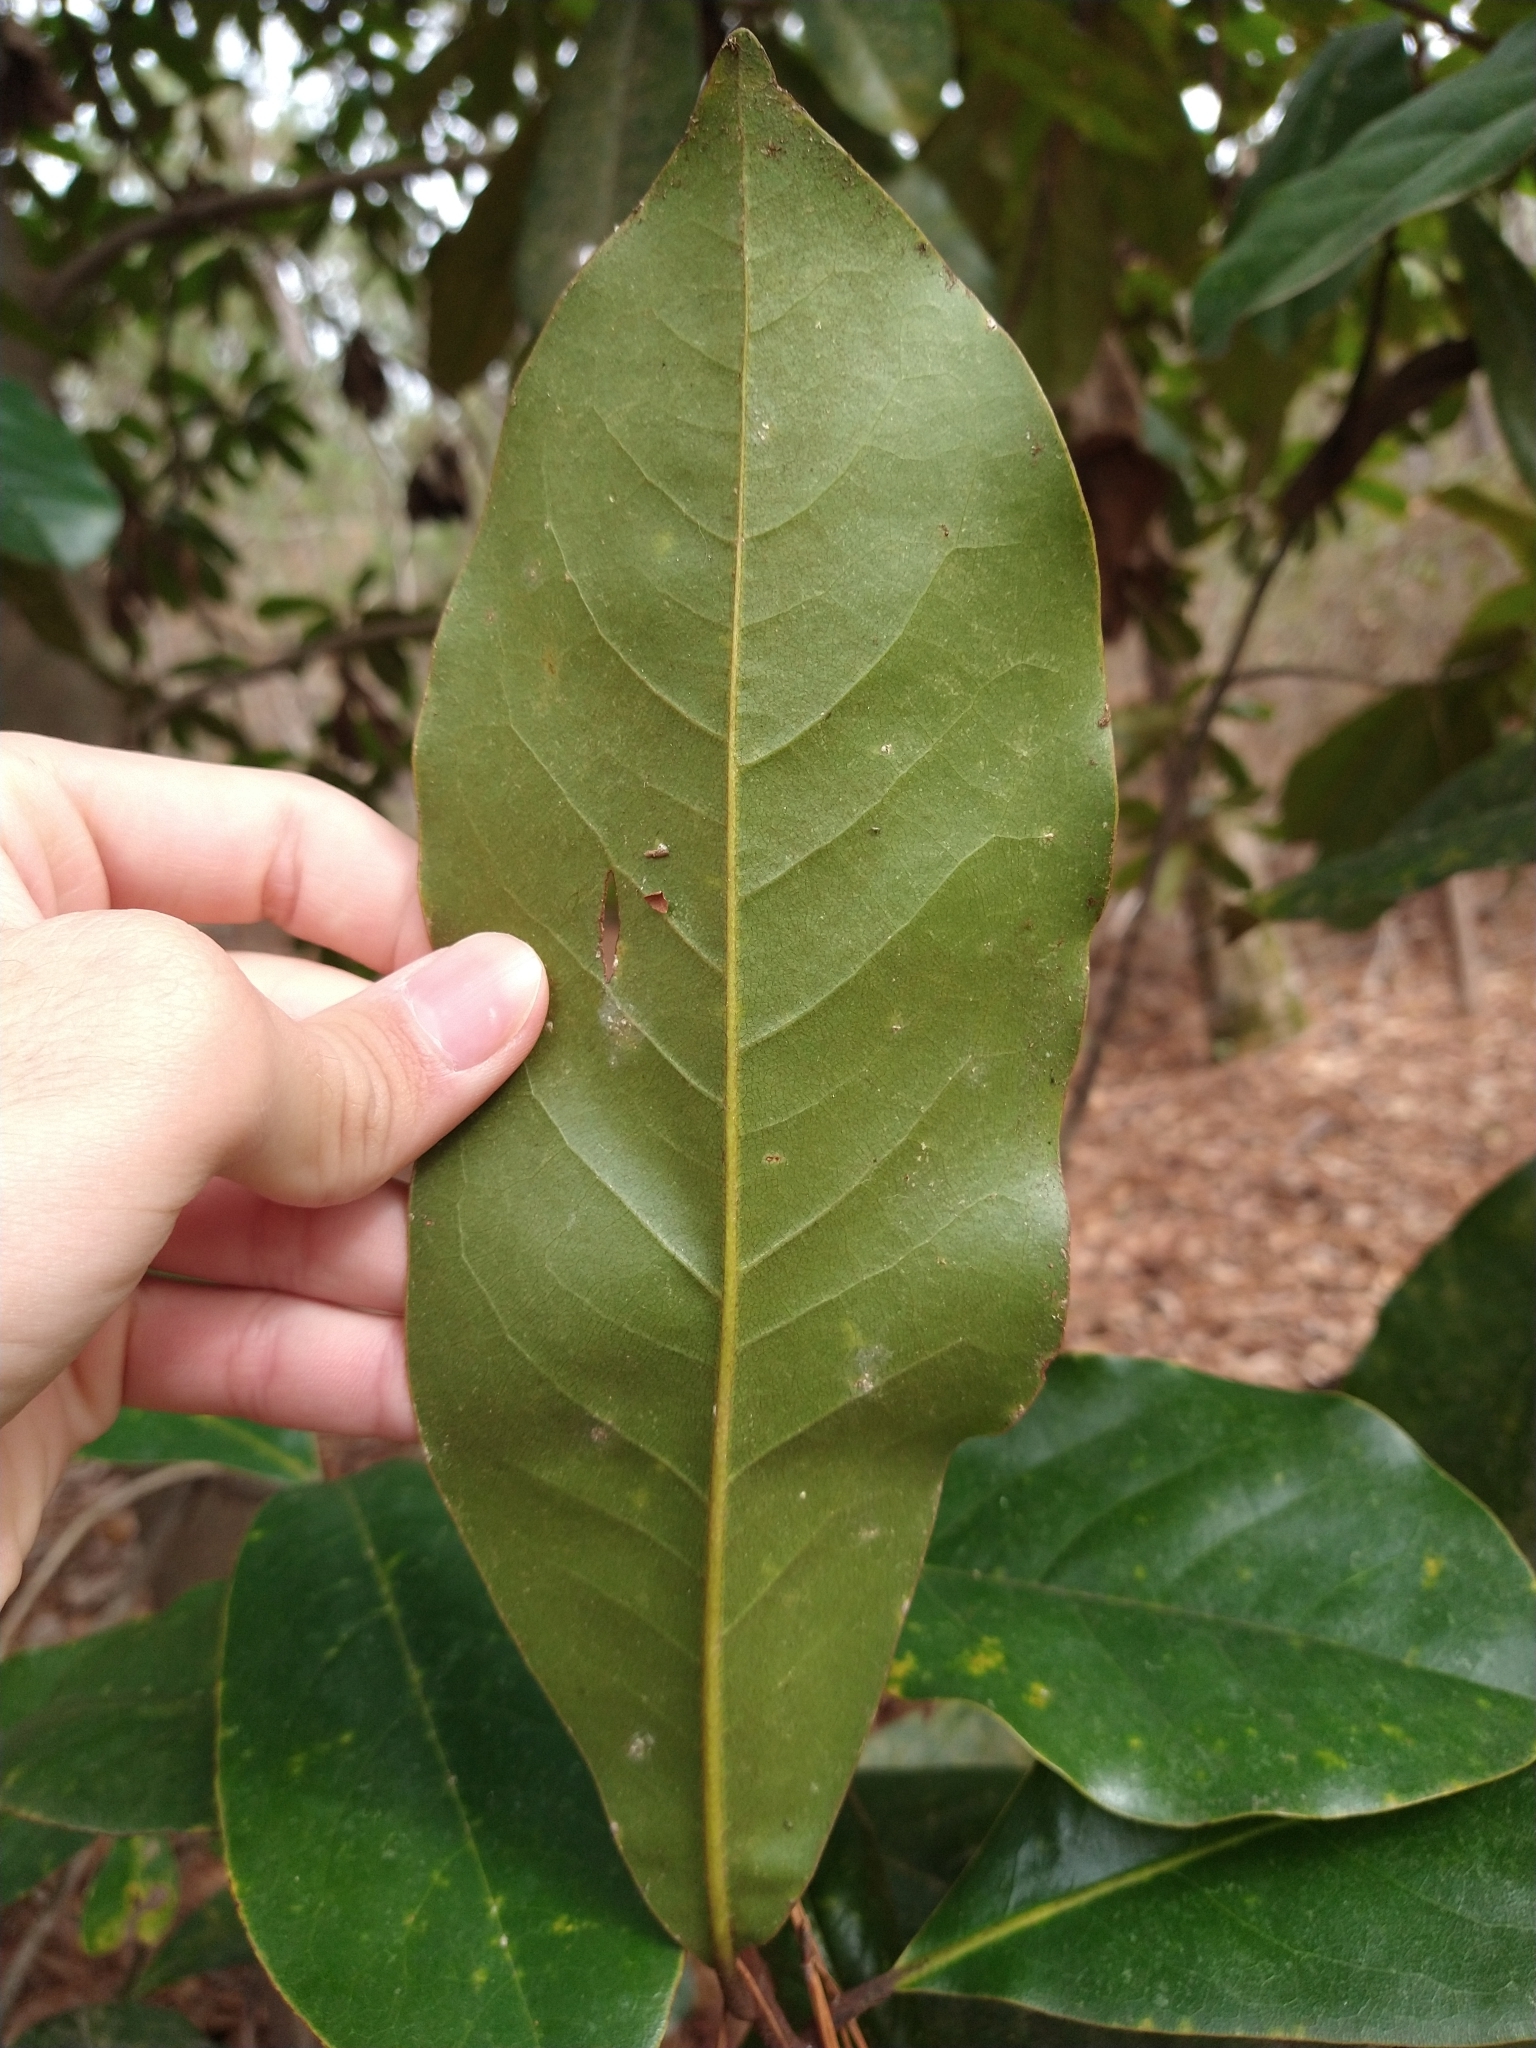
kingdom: Plantae
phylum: Tracheophyta
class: Magnoliopsida
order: Magnoliales
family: Magnoliaceae
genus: Magnolia
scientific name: Magnolia grandiflora
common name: Southern magnolia
